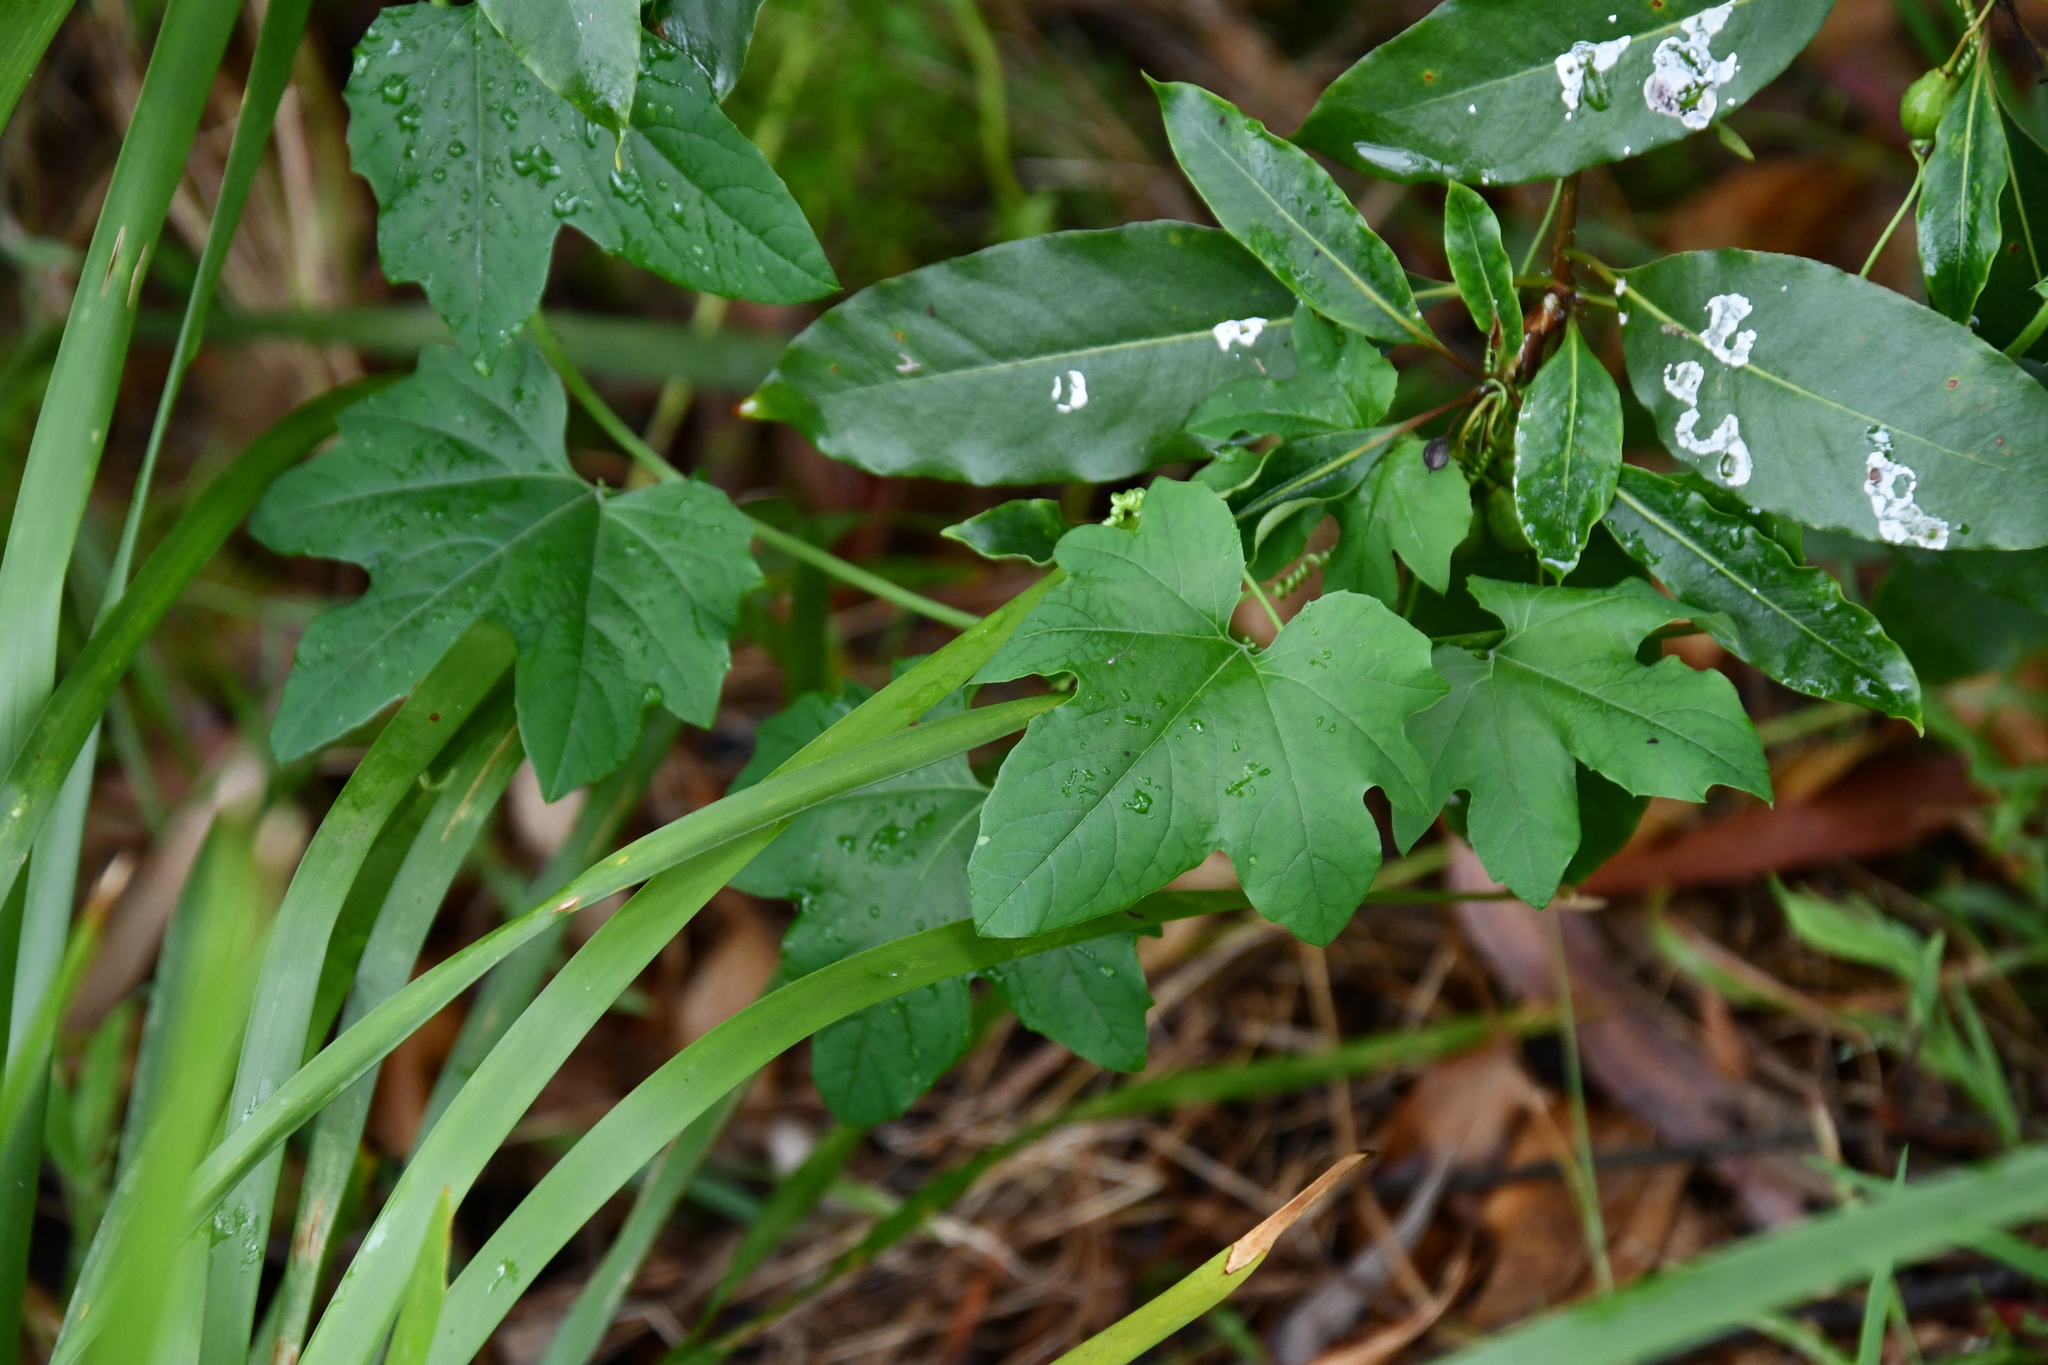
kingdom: Plantae
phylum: Tracheophyta
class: Magnoliopsida
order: Malpighiales
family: Passifloraceae
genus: Passiflora
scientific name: Passiflora morifolia
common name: Woodland passionflower
